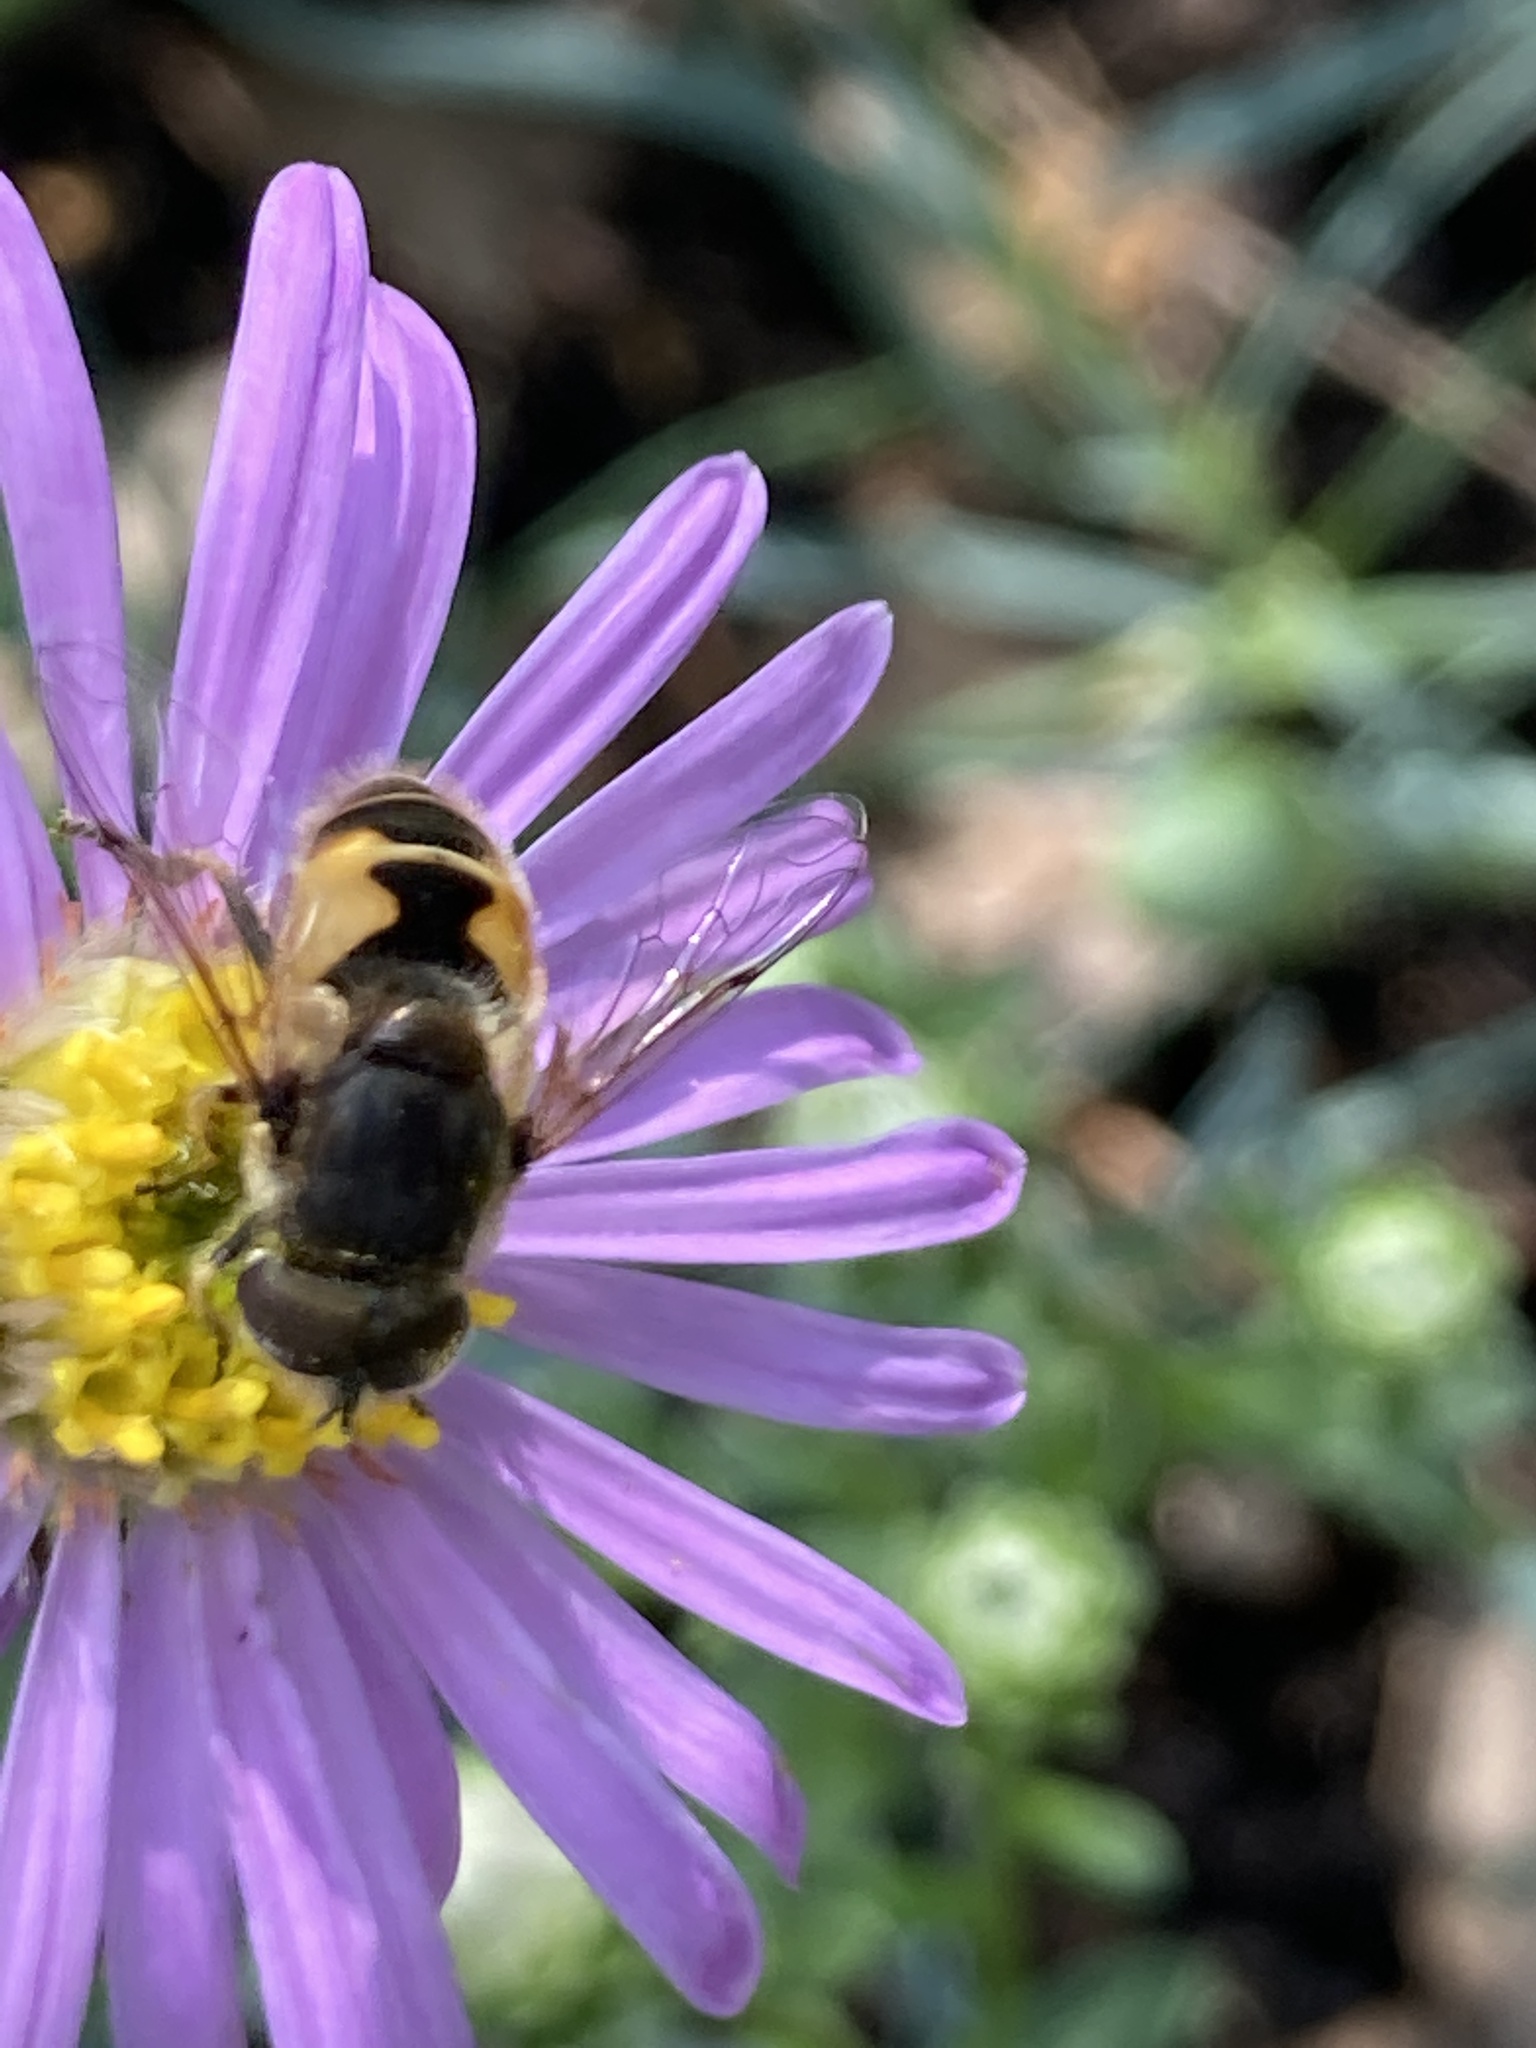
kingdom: Animalia
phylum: Arthropoda
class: Insecta
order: Diptera
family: Syrphidae
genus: Eristalis
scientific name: Eristalis arbustorum
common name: Hover fly
